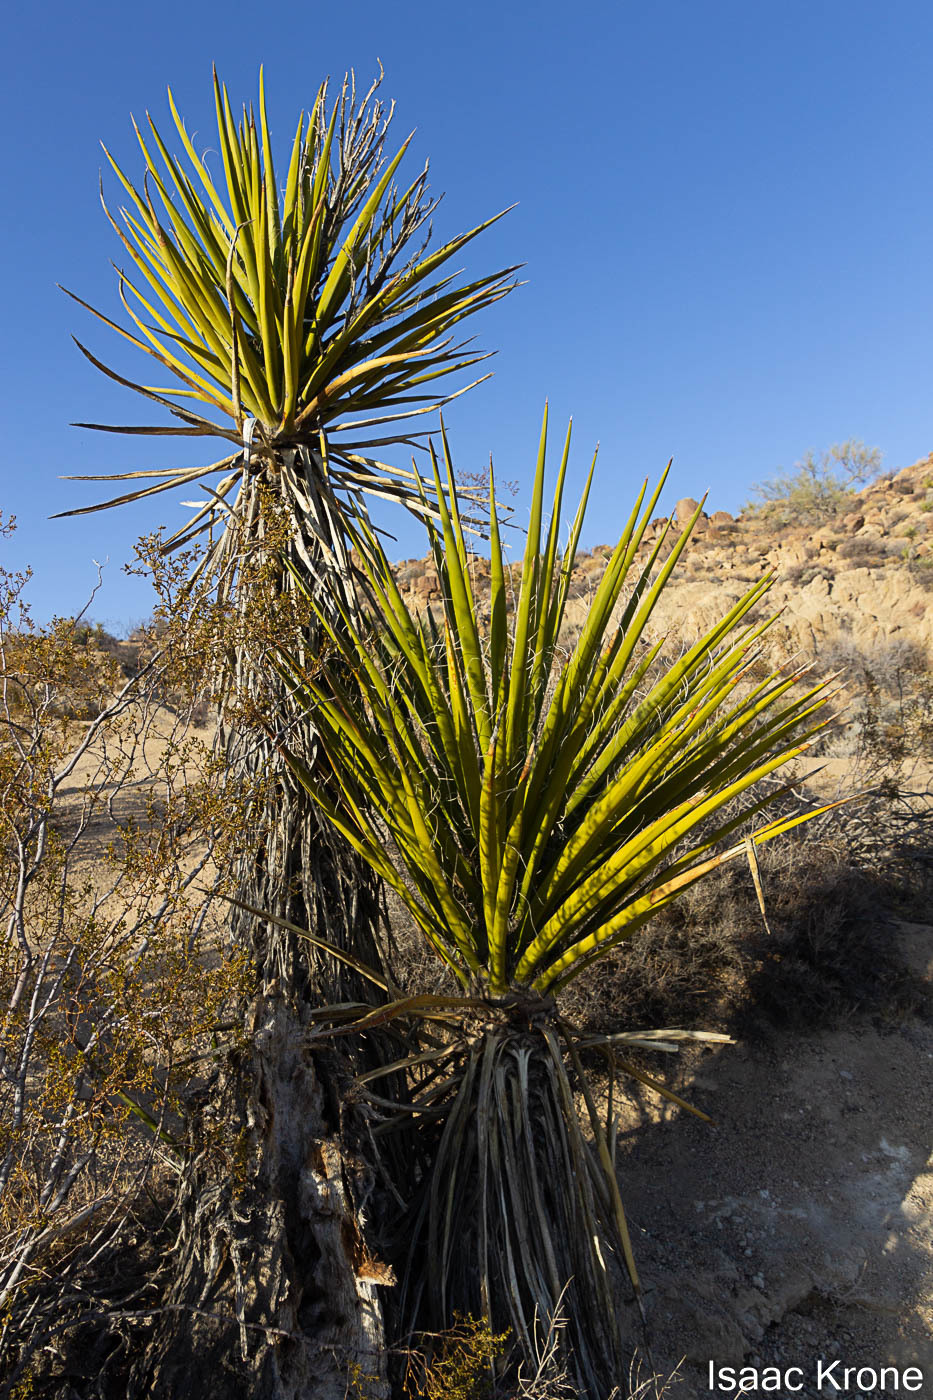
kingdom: Plantae
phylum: Tracheophyta
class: Liliopsida
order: Asparagales
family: Asparagaceae
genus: Yucca
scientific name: Yucca schidigera
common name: Mojave yucca
